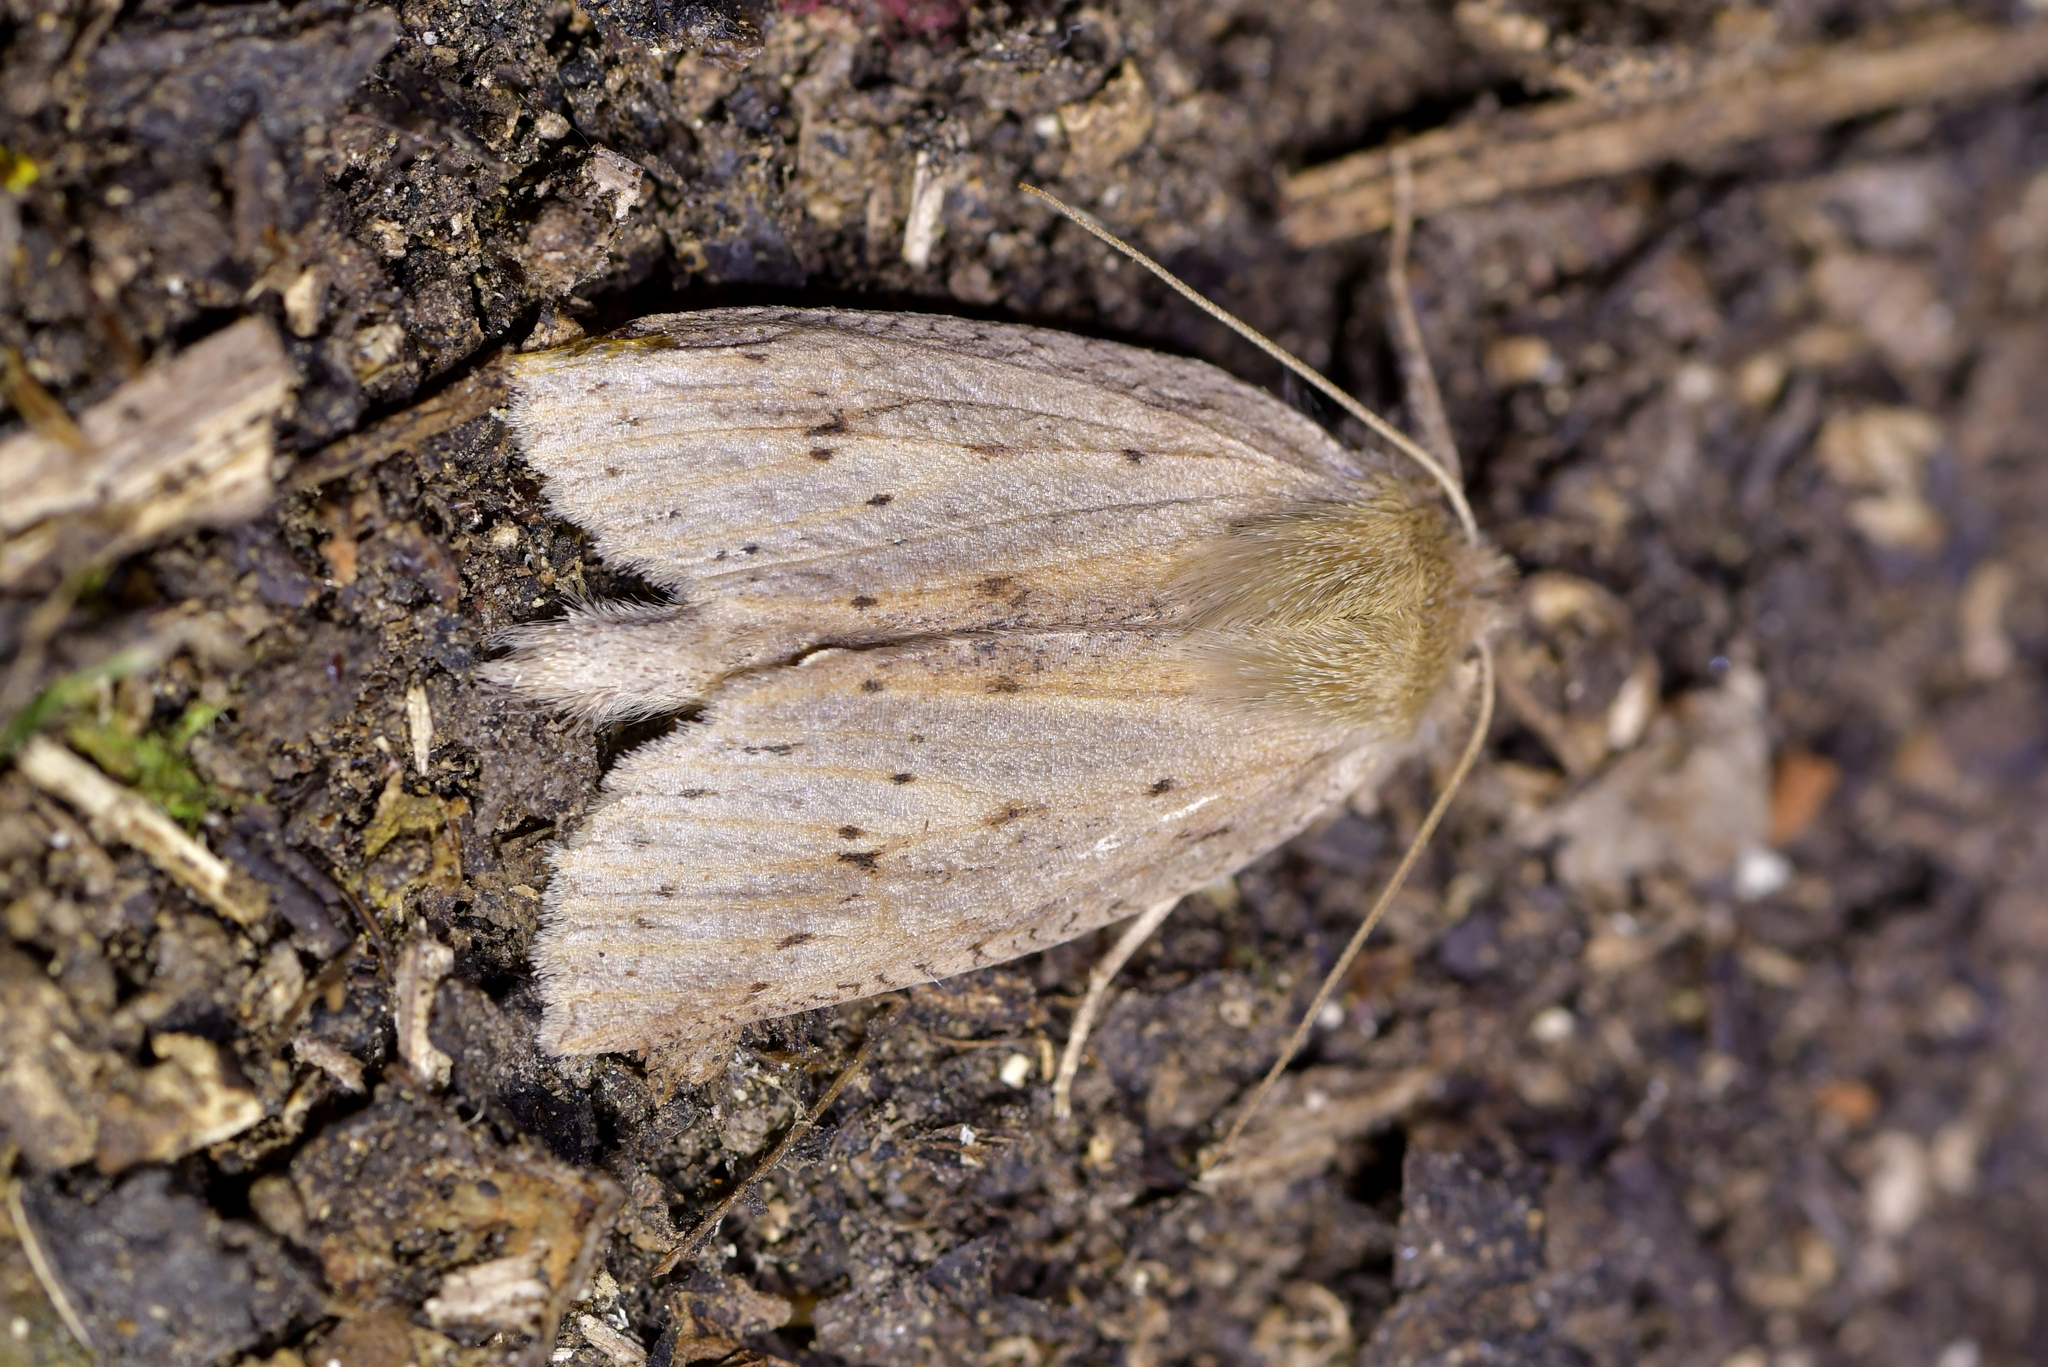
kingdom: Animalia
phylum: Arthropoda
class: Insecta
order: Lepidoptera
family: Geometridae
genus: Declana
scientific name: Declana leptomera
